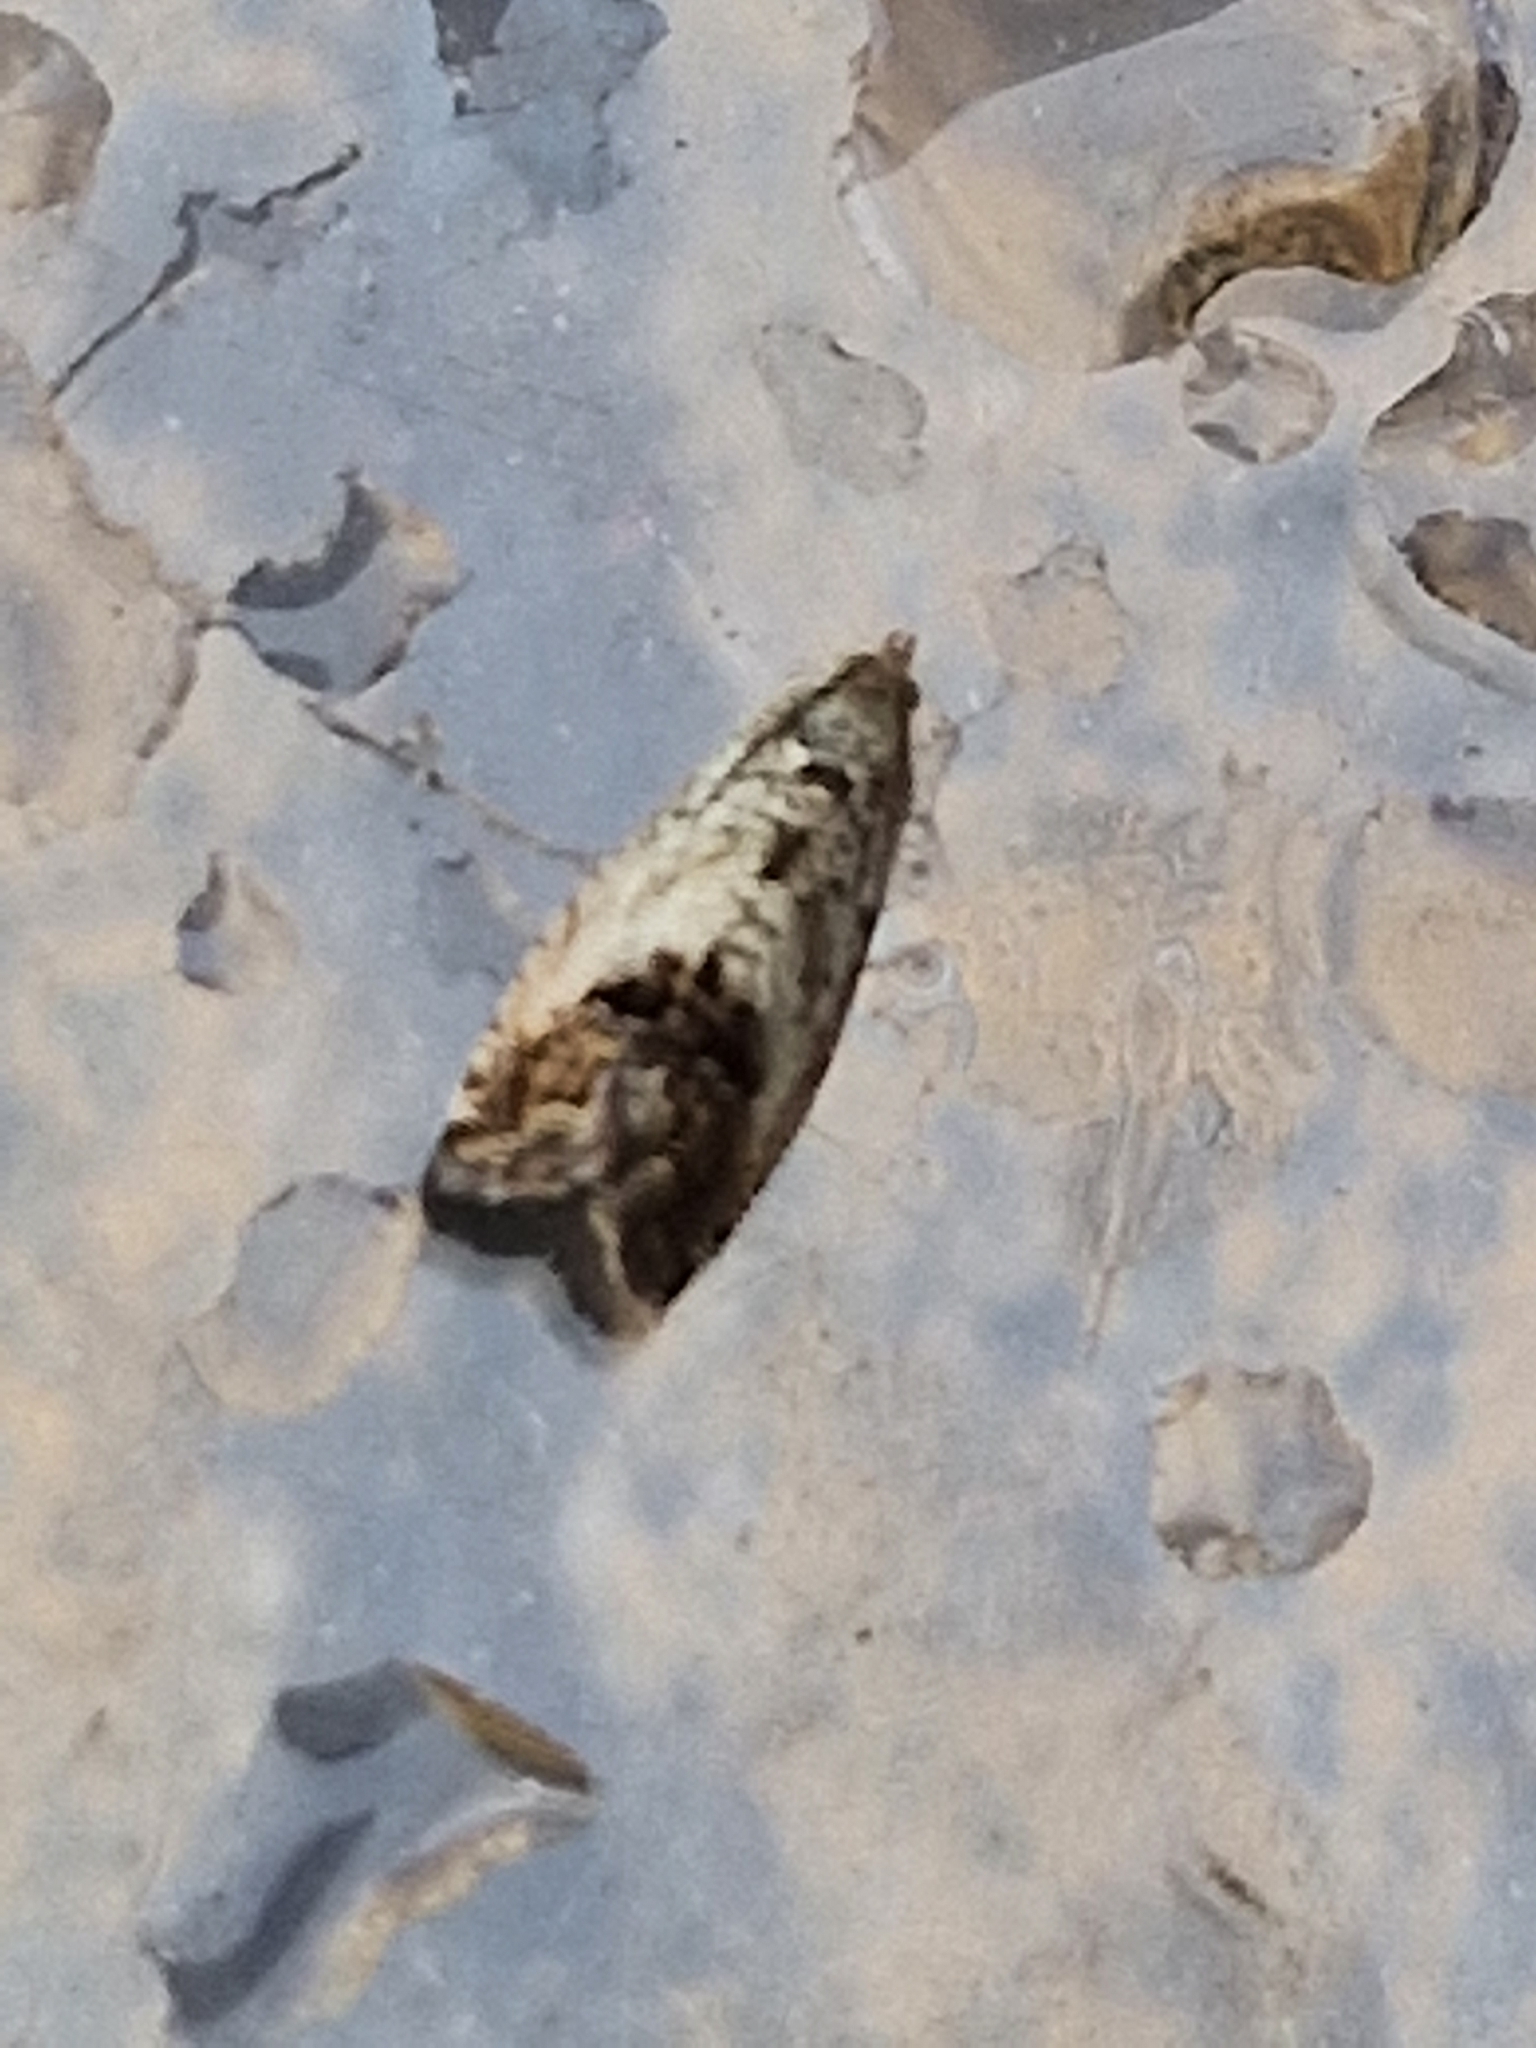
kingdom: Animalia
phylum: Arthropoda
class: Insecta
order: Lepidoptera
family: Tortricidae
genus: Cydia
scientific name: Cydia splendana
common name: De: kastanienwickler, eichenwickler es: oruga de la castaña fr: carpocapse des châtaignes it: cidia o tortrice tardiva delle castagne pt: bichado das castanhas gb: acorn moth, chestnut fruit tortrix
